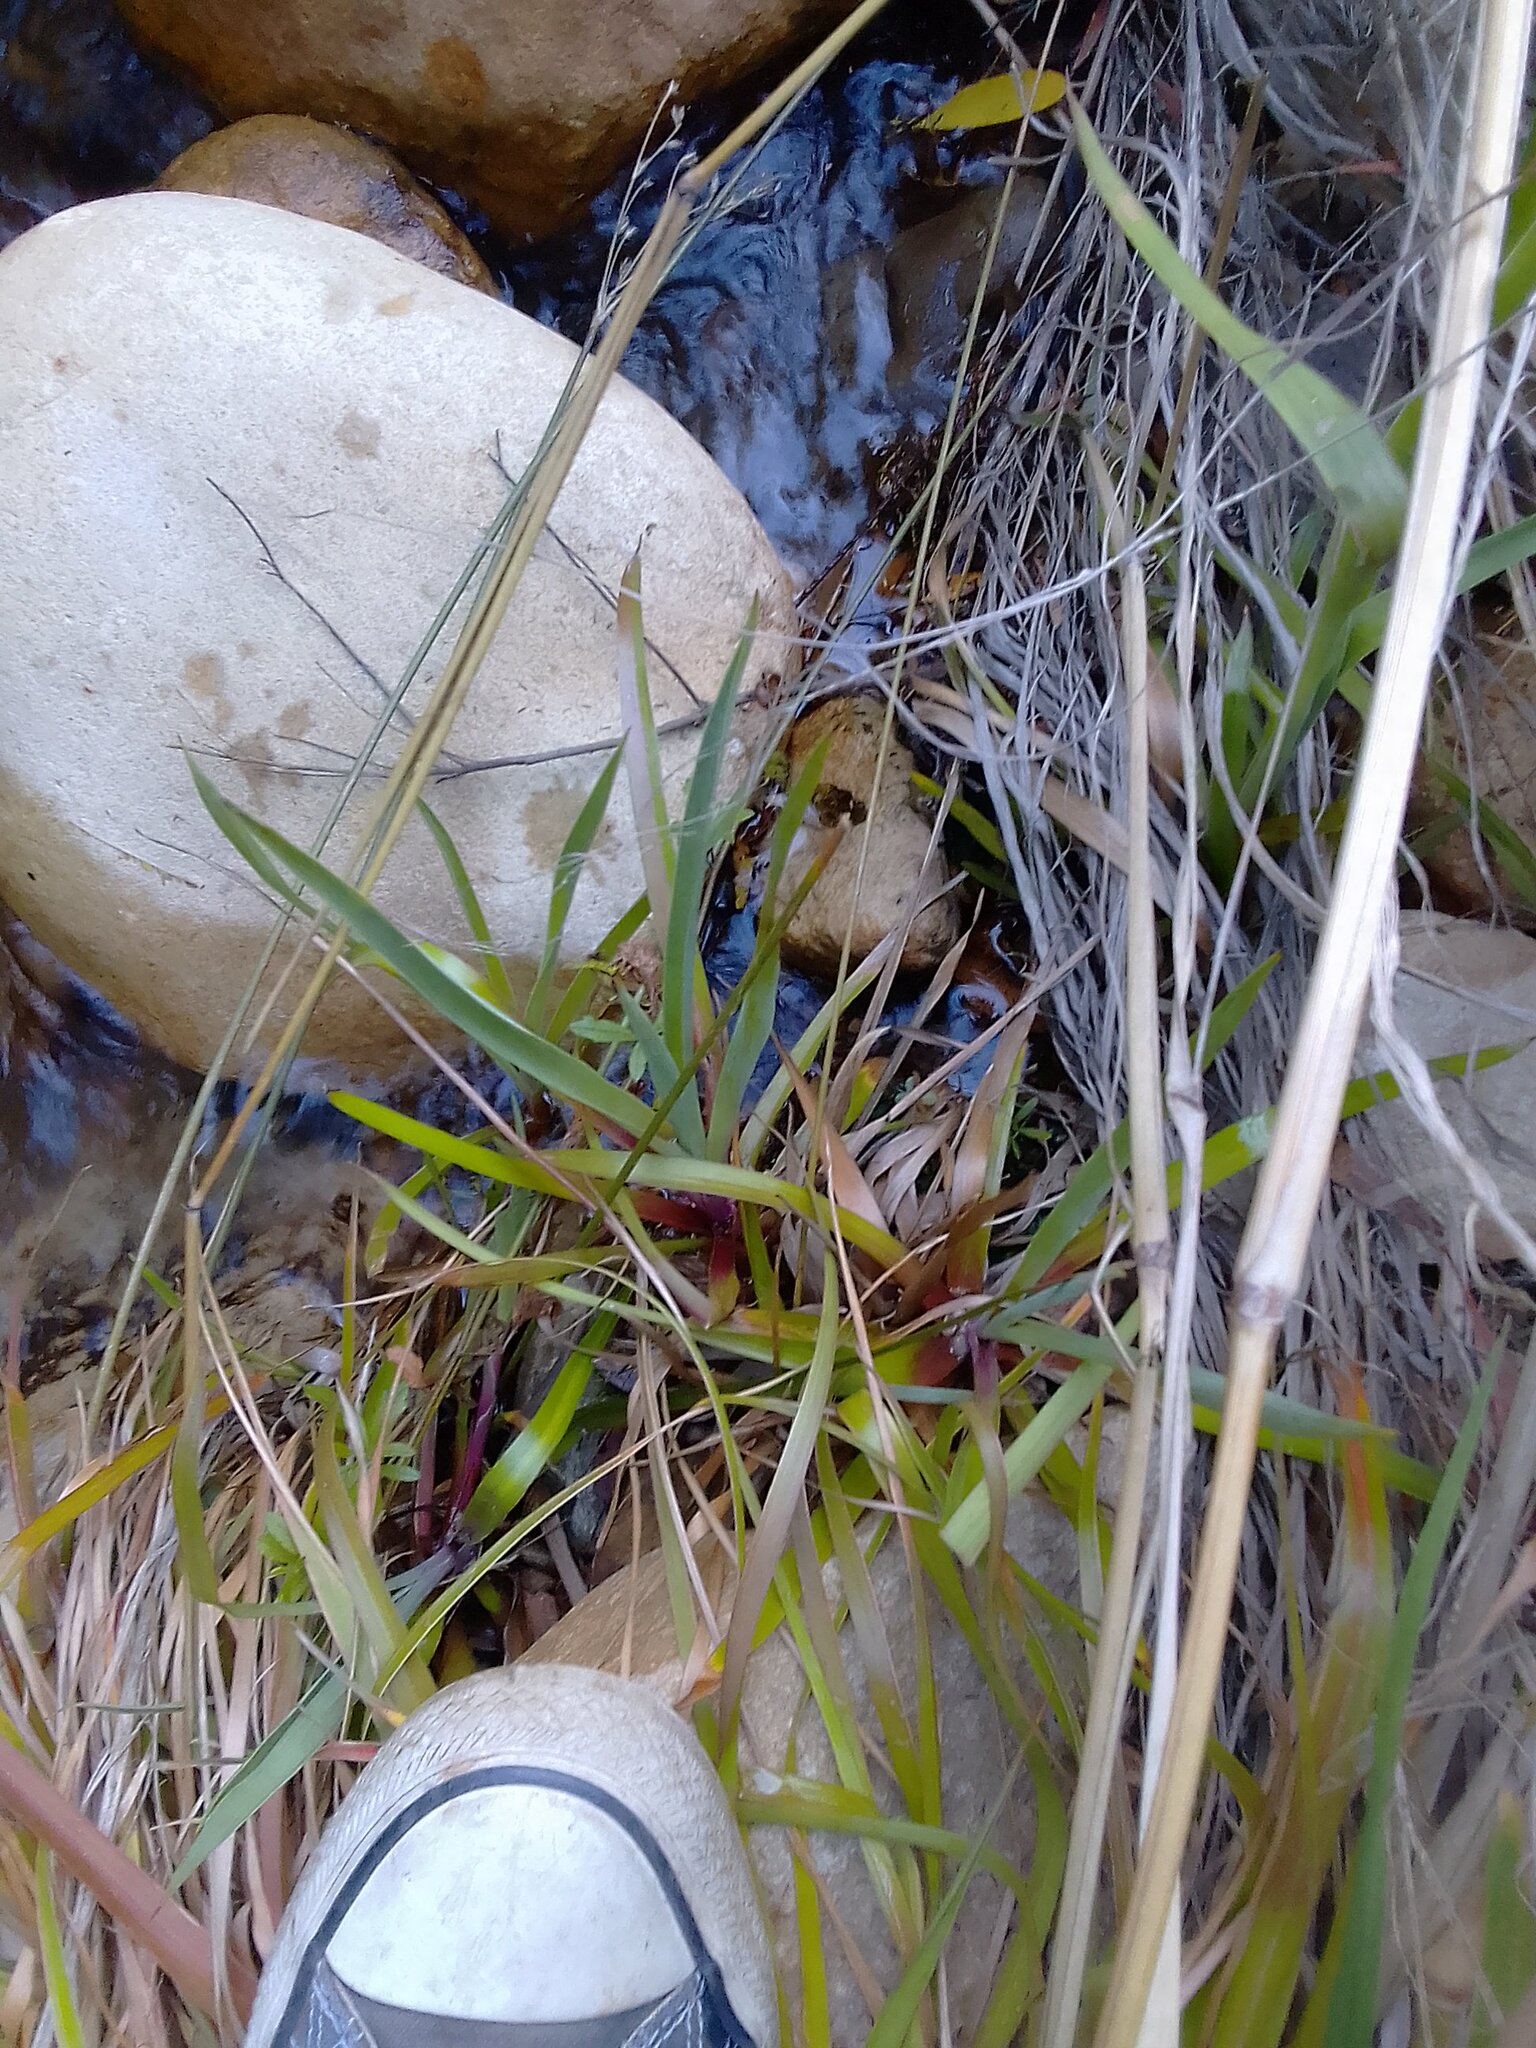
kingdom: Plantae
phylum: Tracheophyta
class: Liliopsida
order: Poales
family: Juncaceae
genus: Juncus
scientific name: Juncus lomatophyllus
